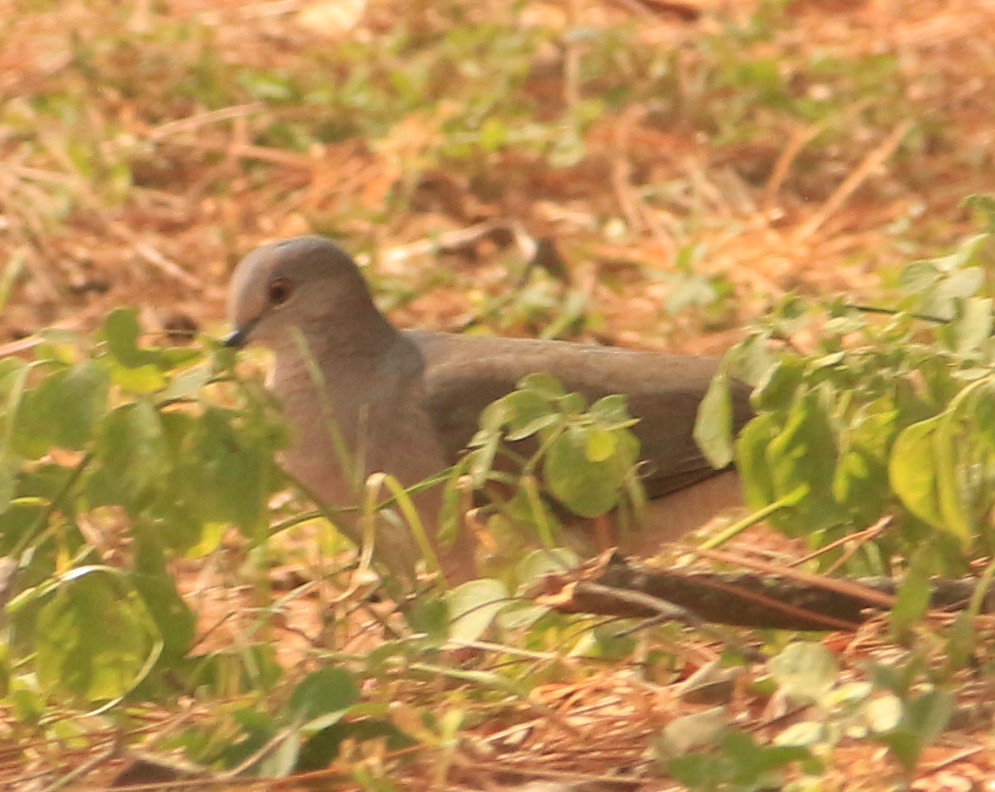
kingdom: Animalia
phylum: Chordata
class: Aves
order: Columbiformes
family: Columbidae
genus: Leptotila
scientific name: Leptotila verreauxi
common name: White-tipped dove
